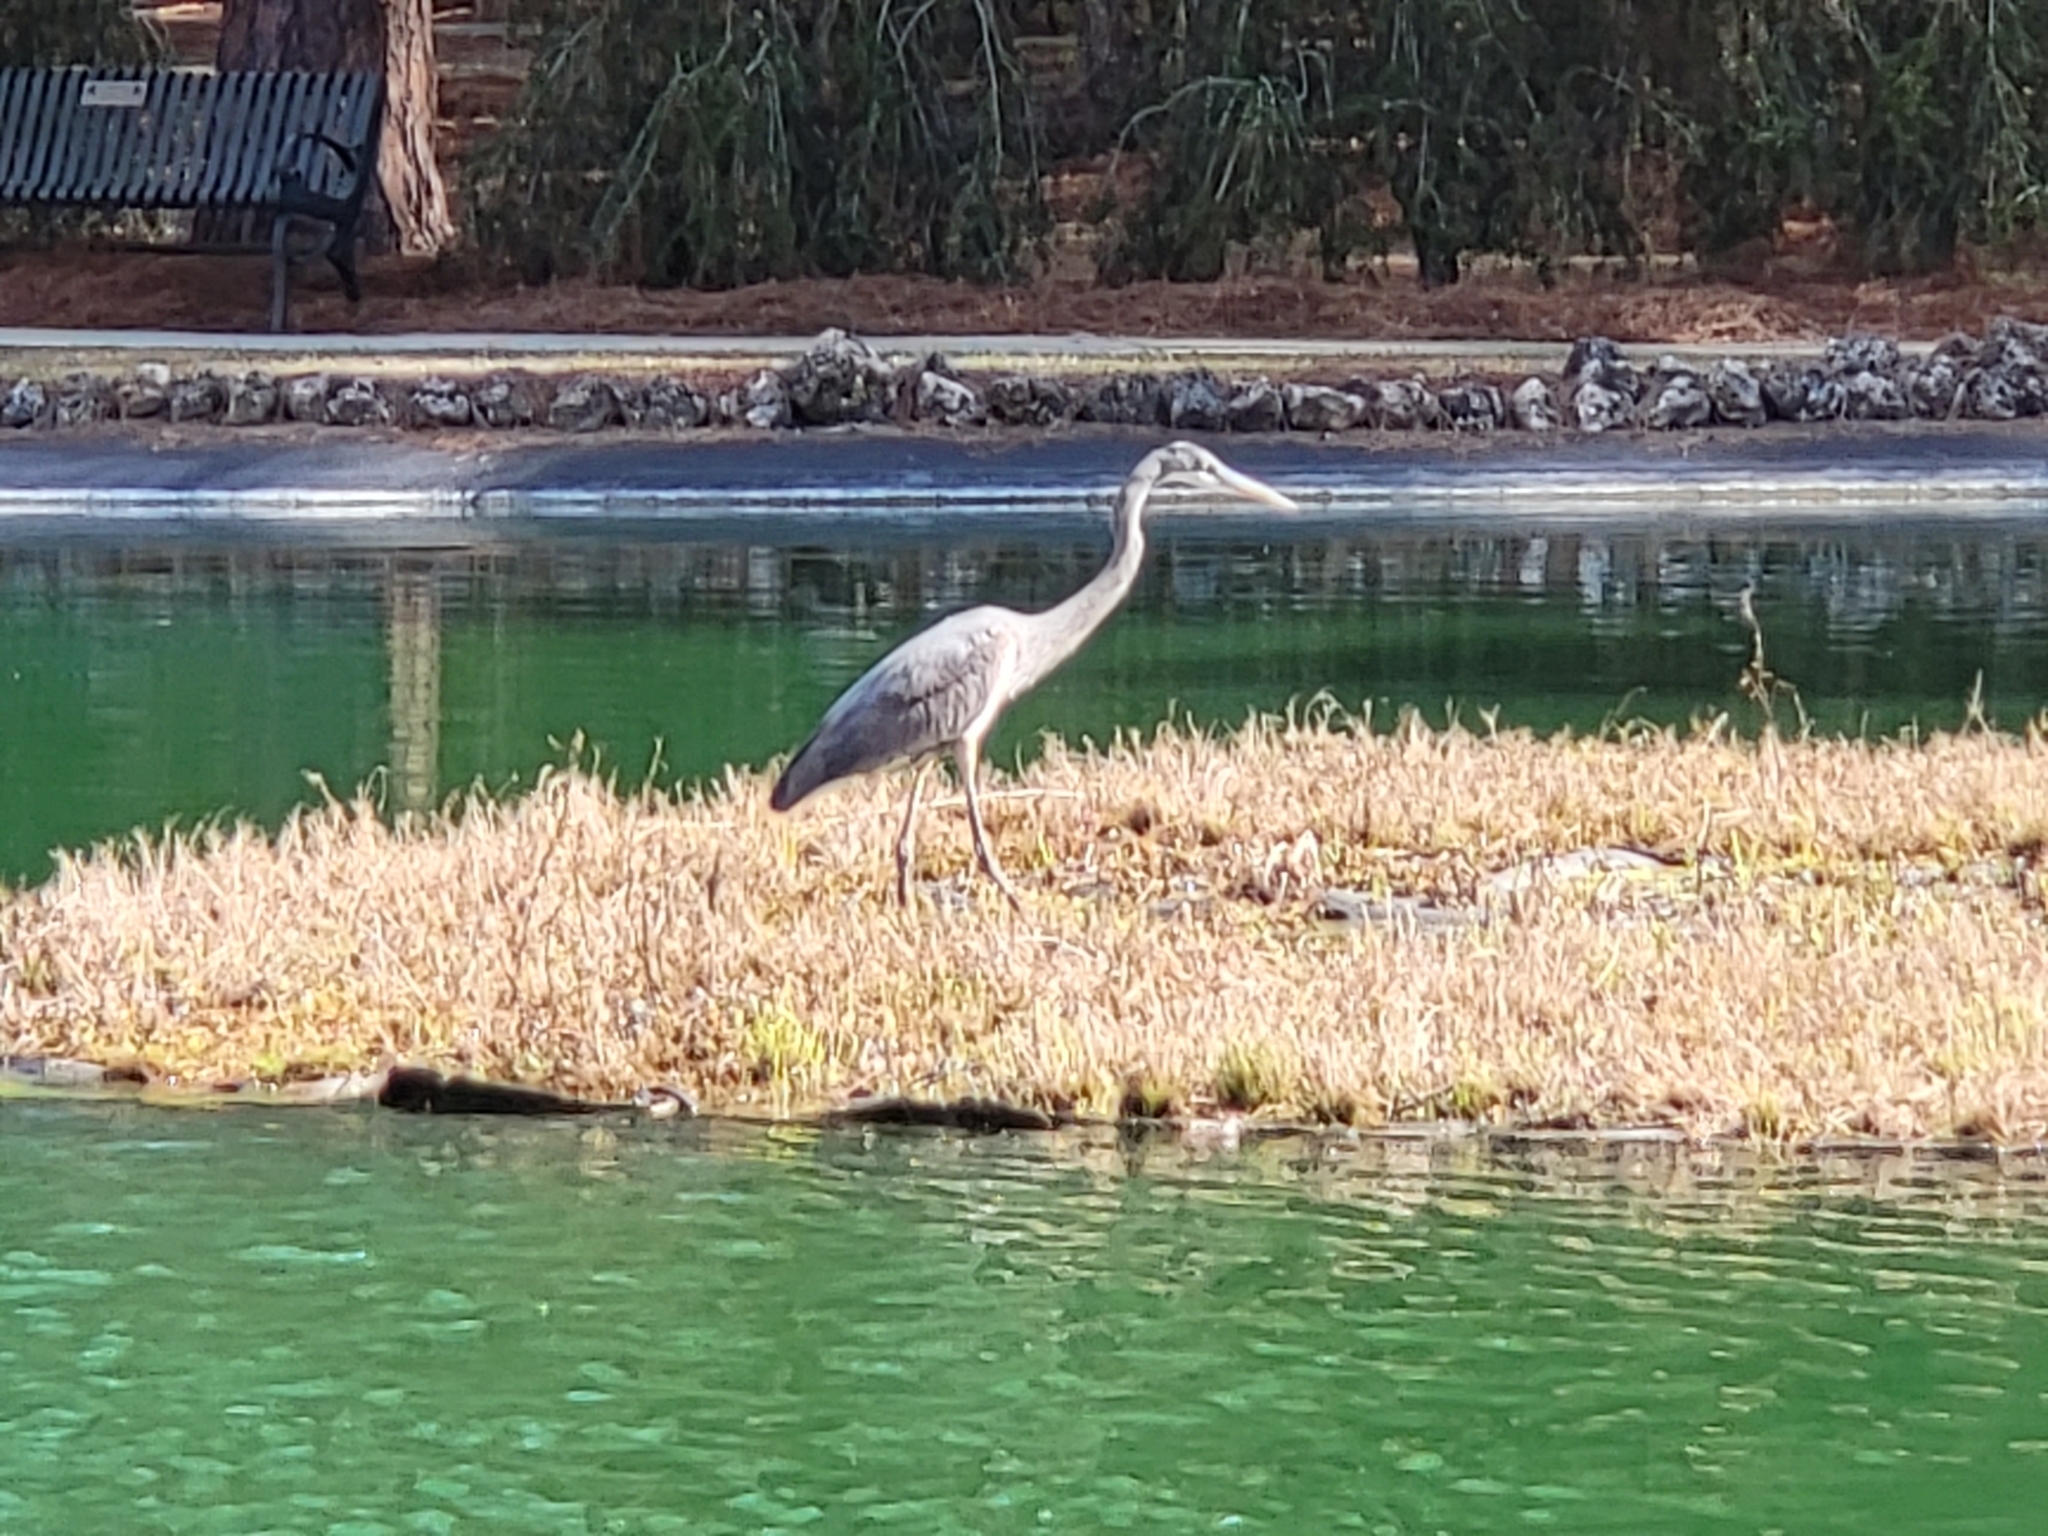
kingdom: Animalia
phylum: Chordata
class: Aves
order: Pelecaniformes
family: Ardeidae
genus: Ardea
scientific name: Ardea herodias
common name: Great blue heron
